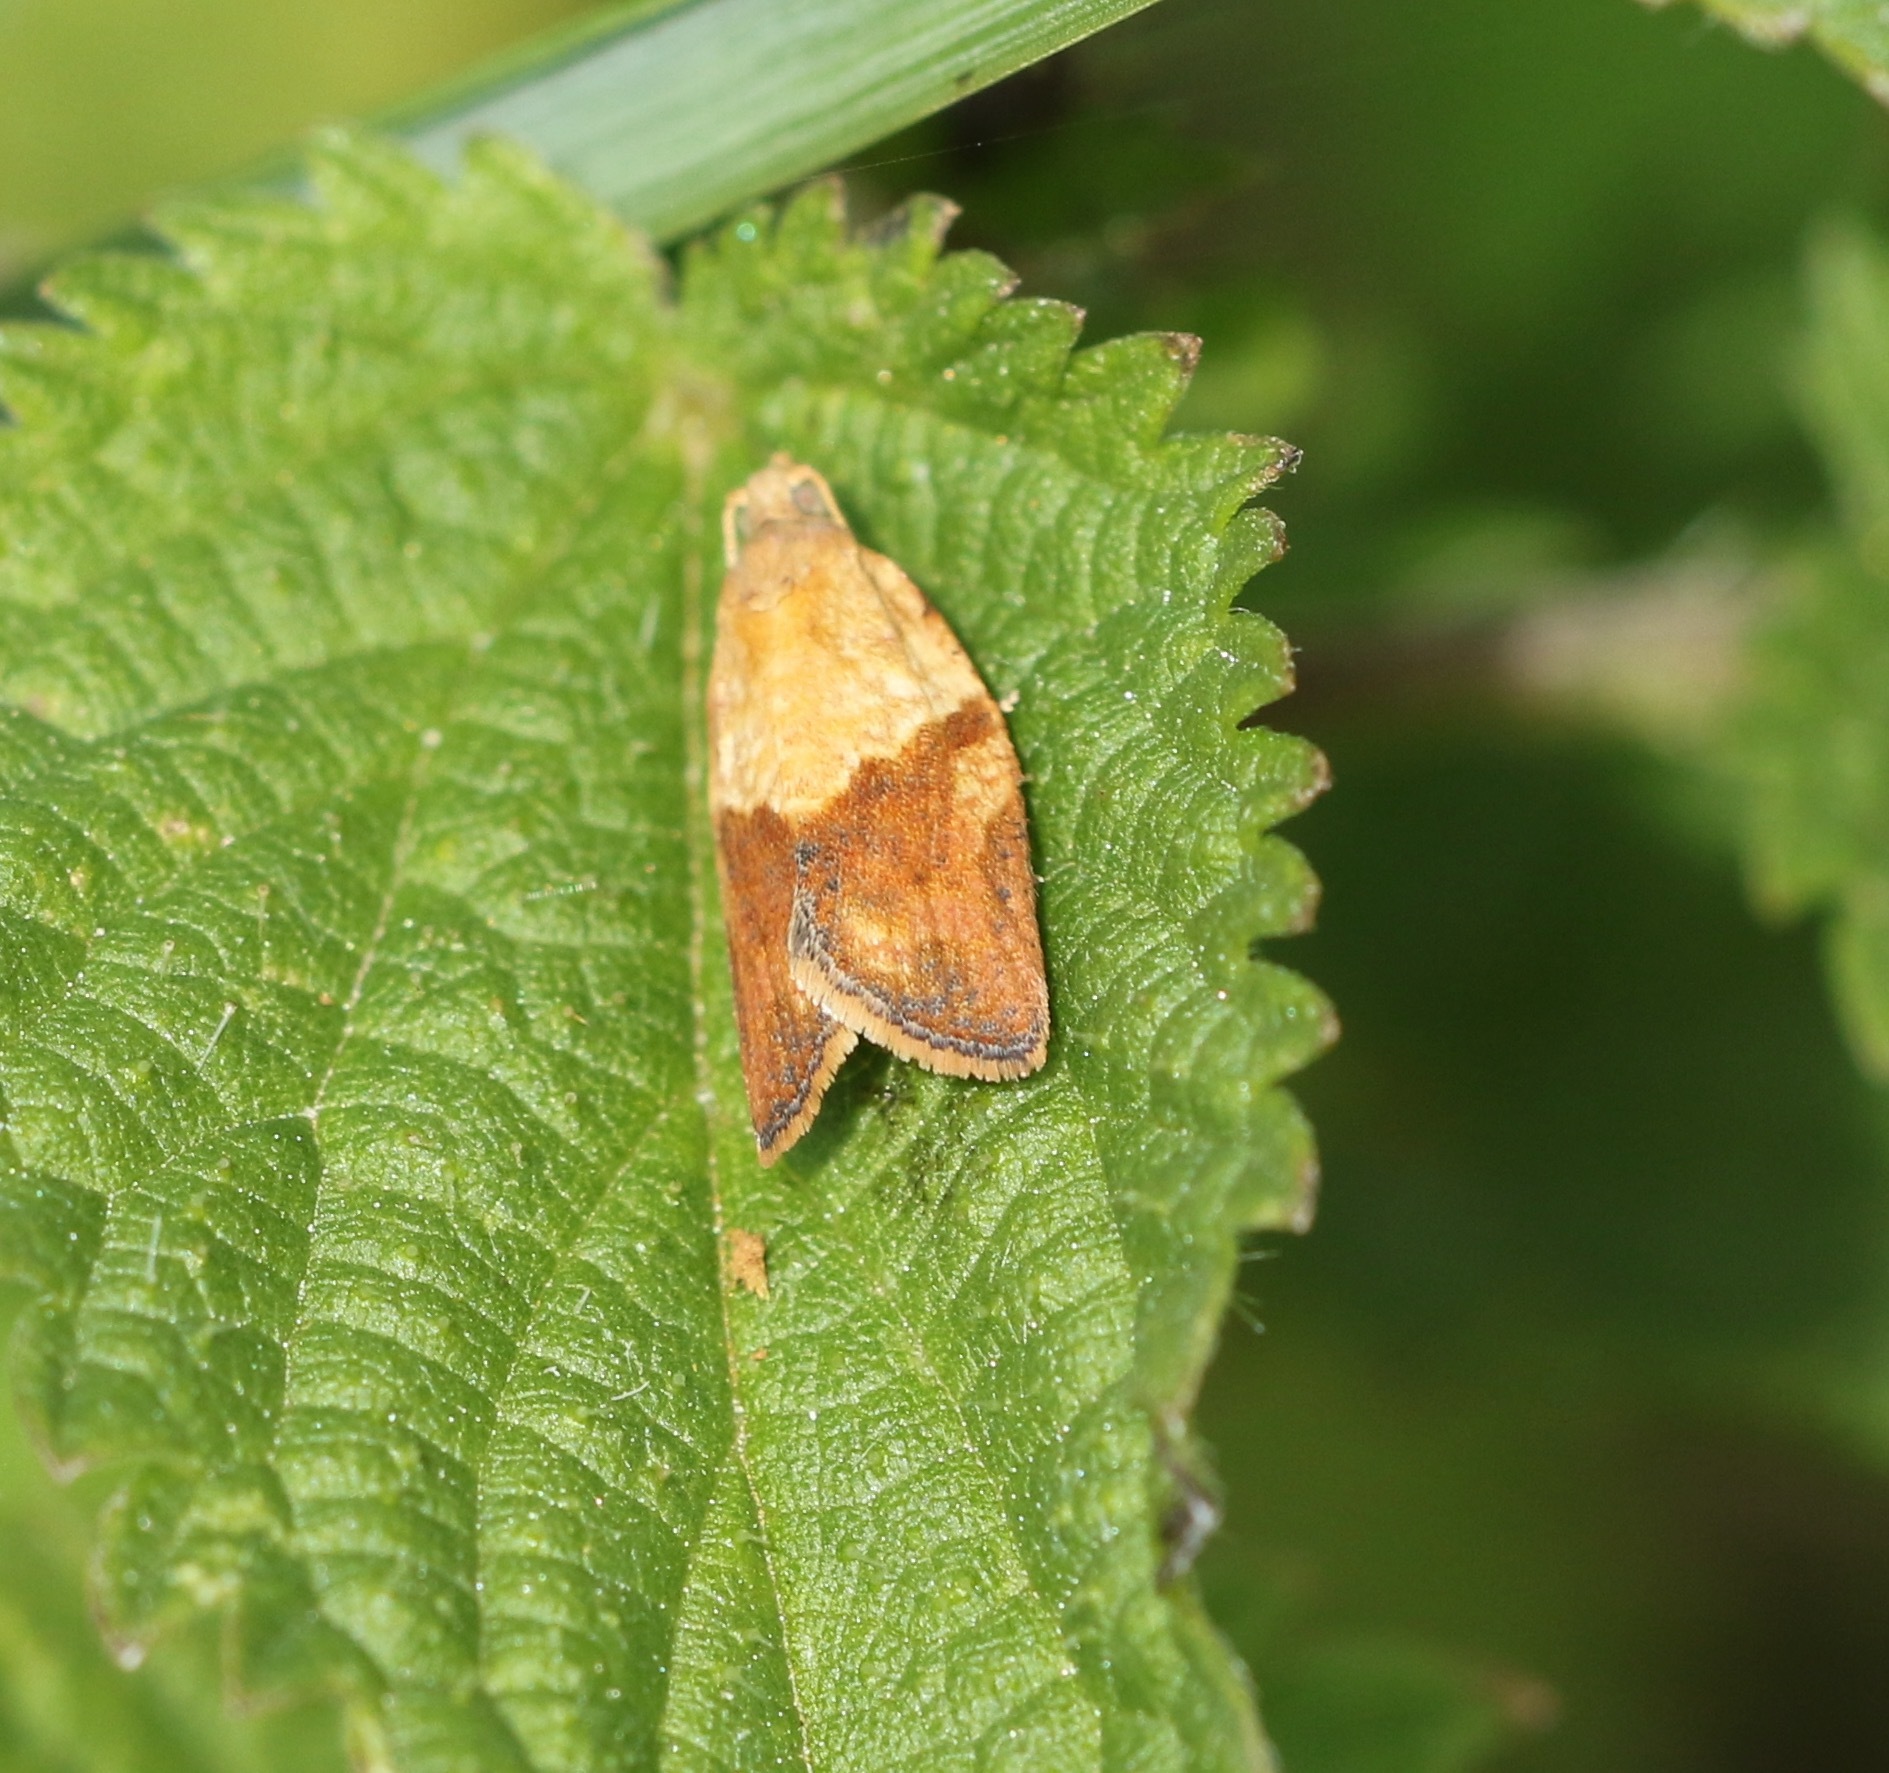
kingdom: Animalia
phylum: Arthropoda
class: Insecta
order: Lepidoptera
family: Tortricidae
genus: Epiphyas
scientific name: Epiphyas postvittana
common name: Light brown apple moth
